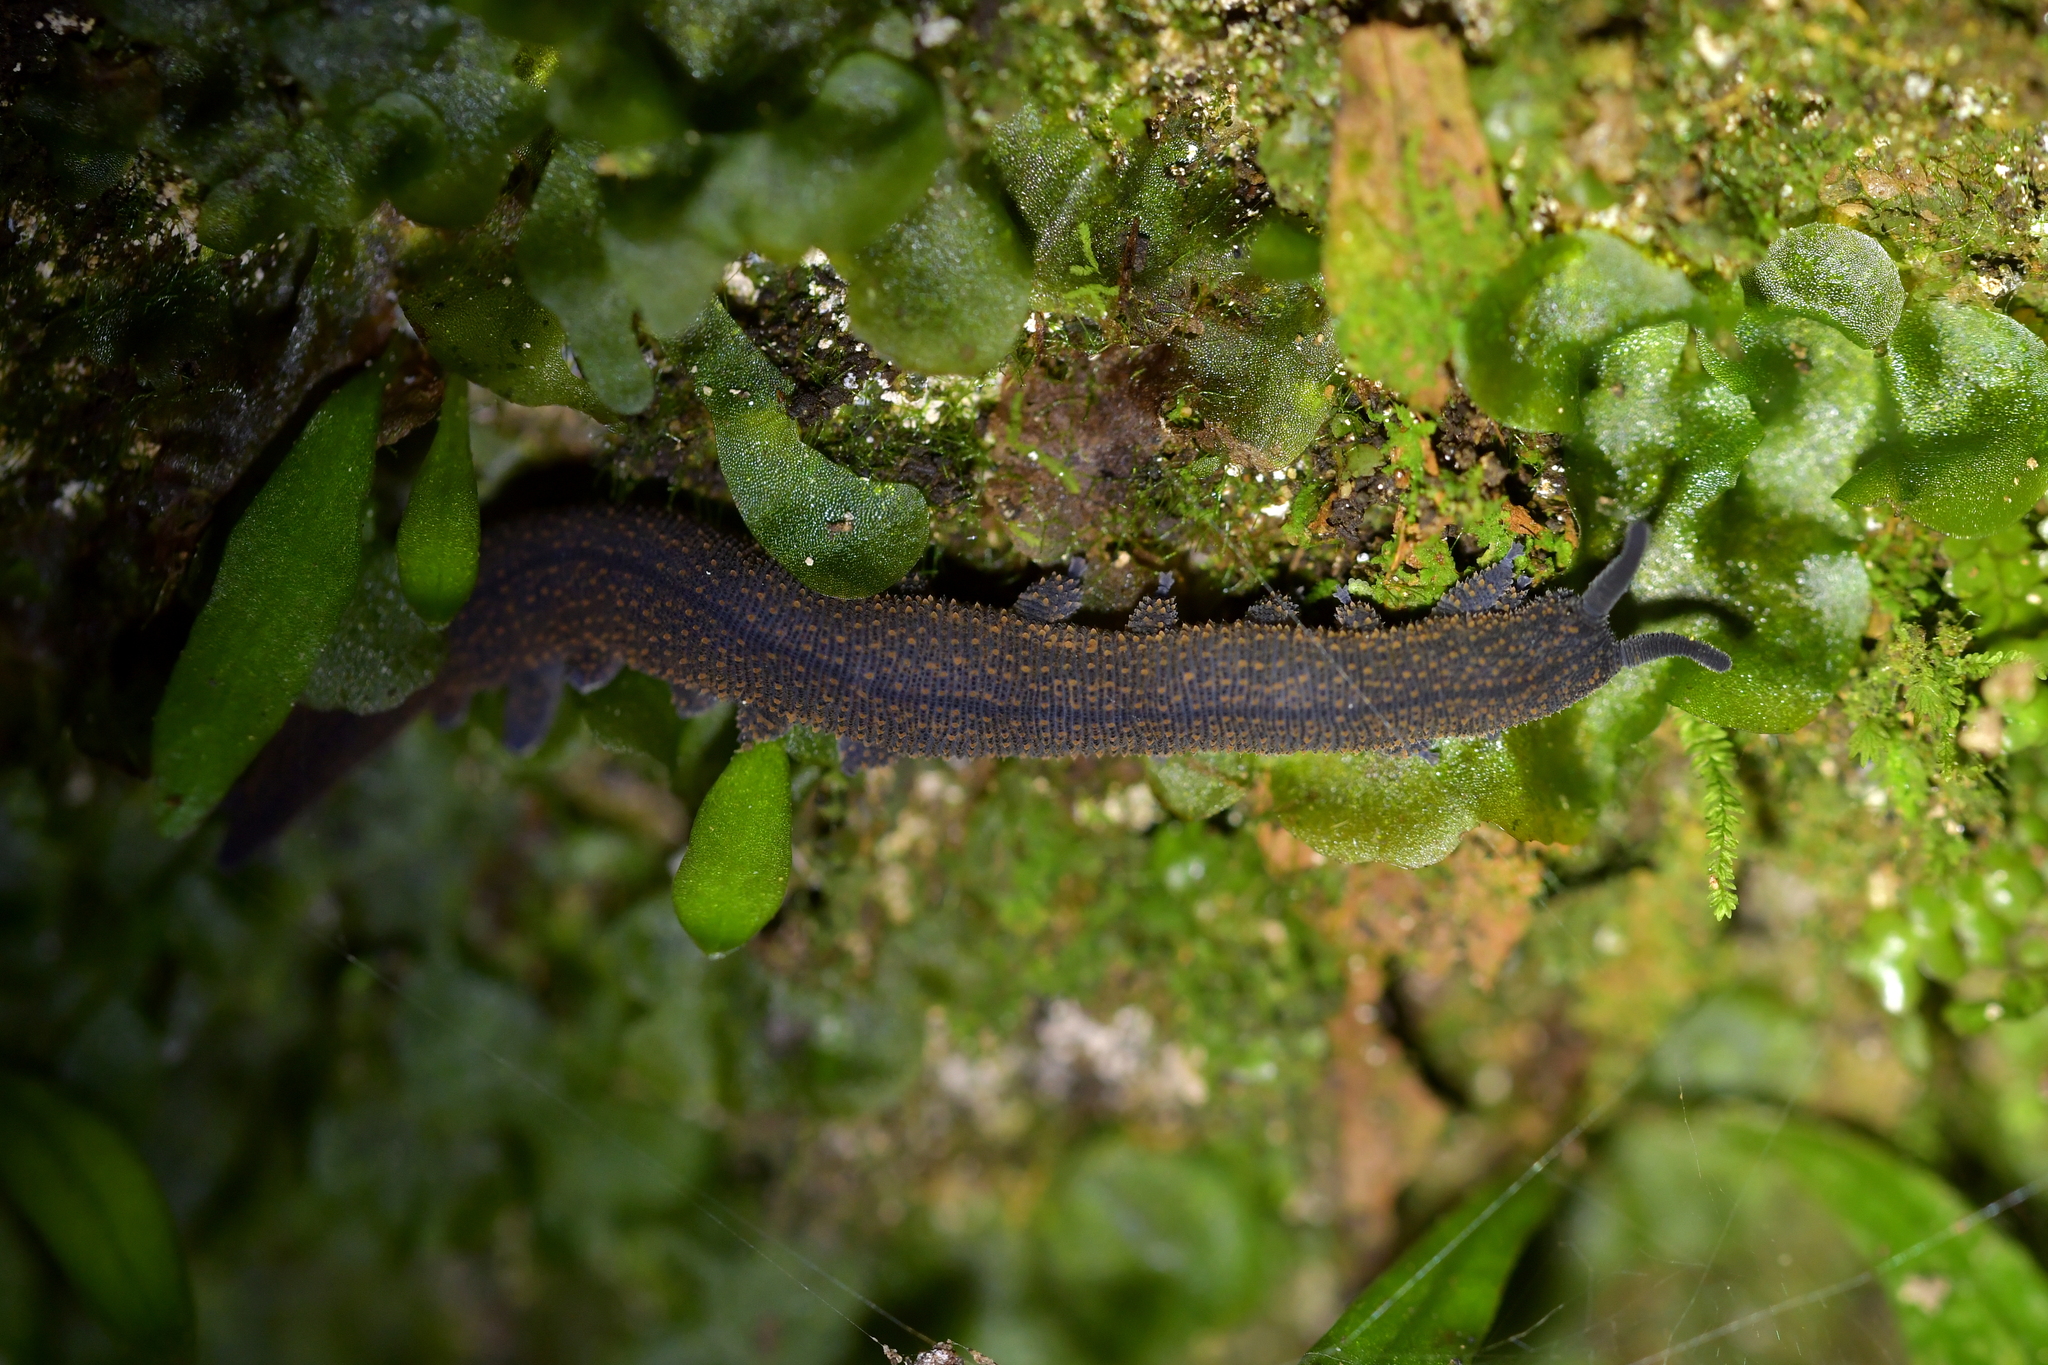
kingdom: Animalia
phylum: Onychophora
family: Peripatopsidae
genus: Peripatoides
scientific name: Peripatoides novaezealandiae
